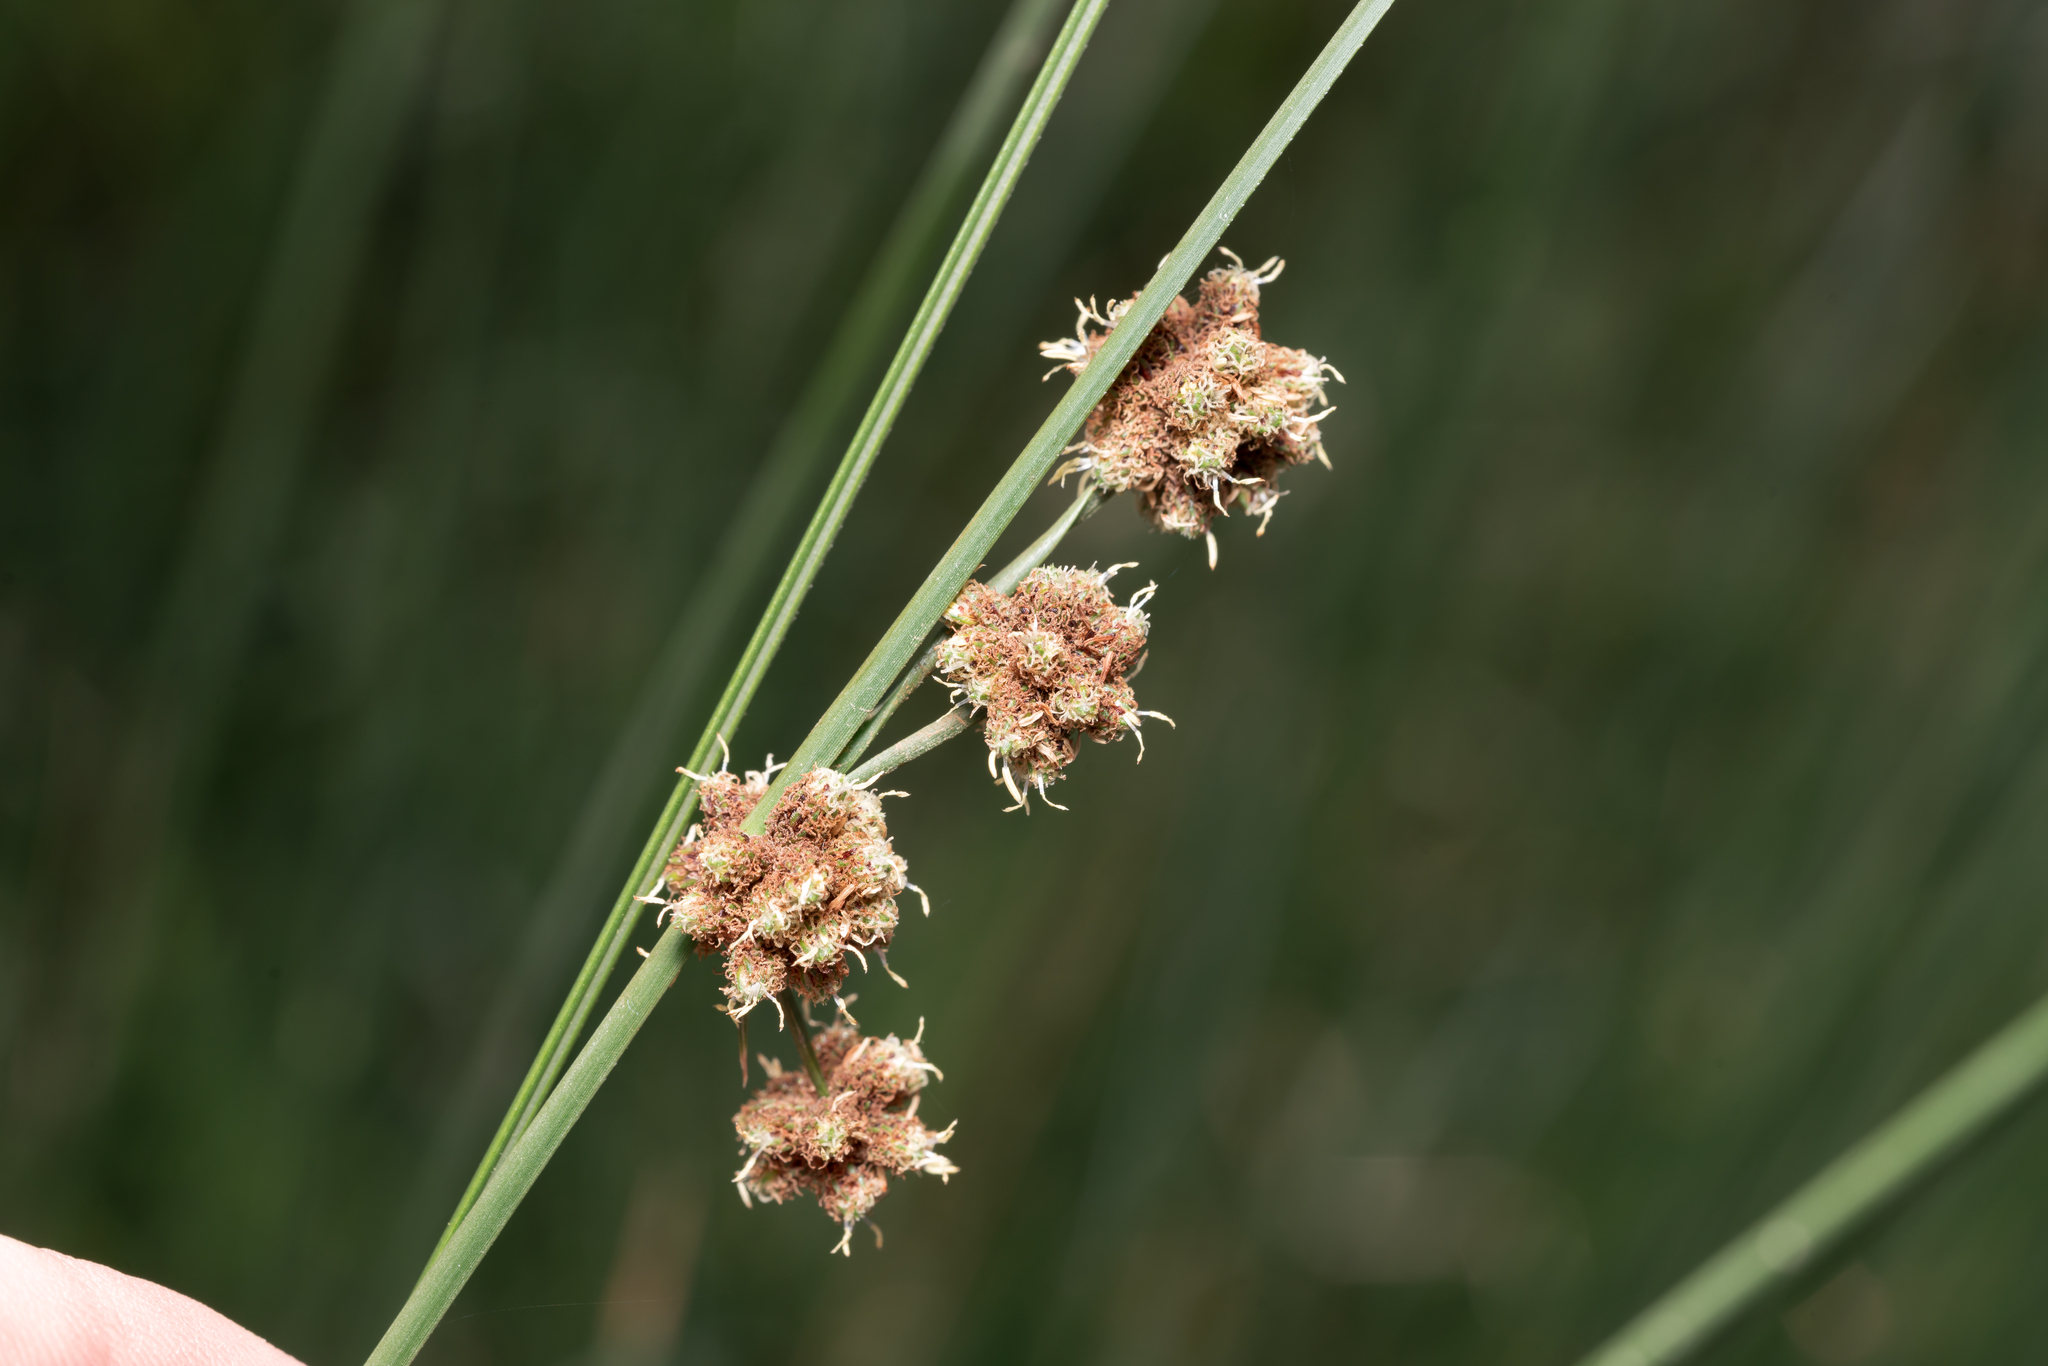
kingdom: Plantae
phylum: Tracheophyta
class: Liliopsida
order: Poales
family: Cyperaceae
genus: Scirpoides
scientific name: Scirpoides holoschoenus
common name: Round-headed club-rush
